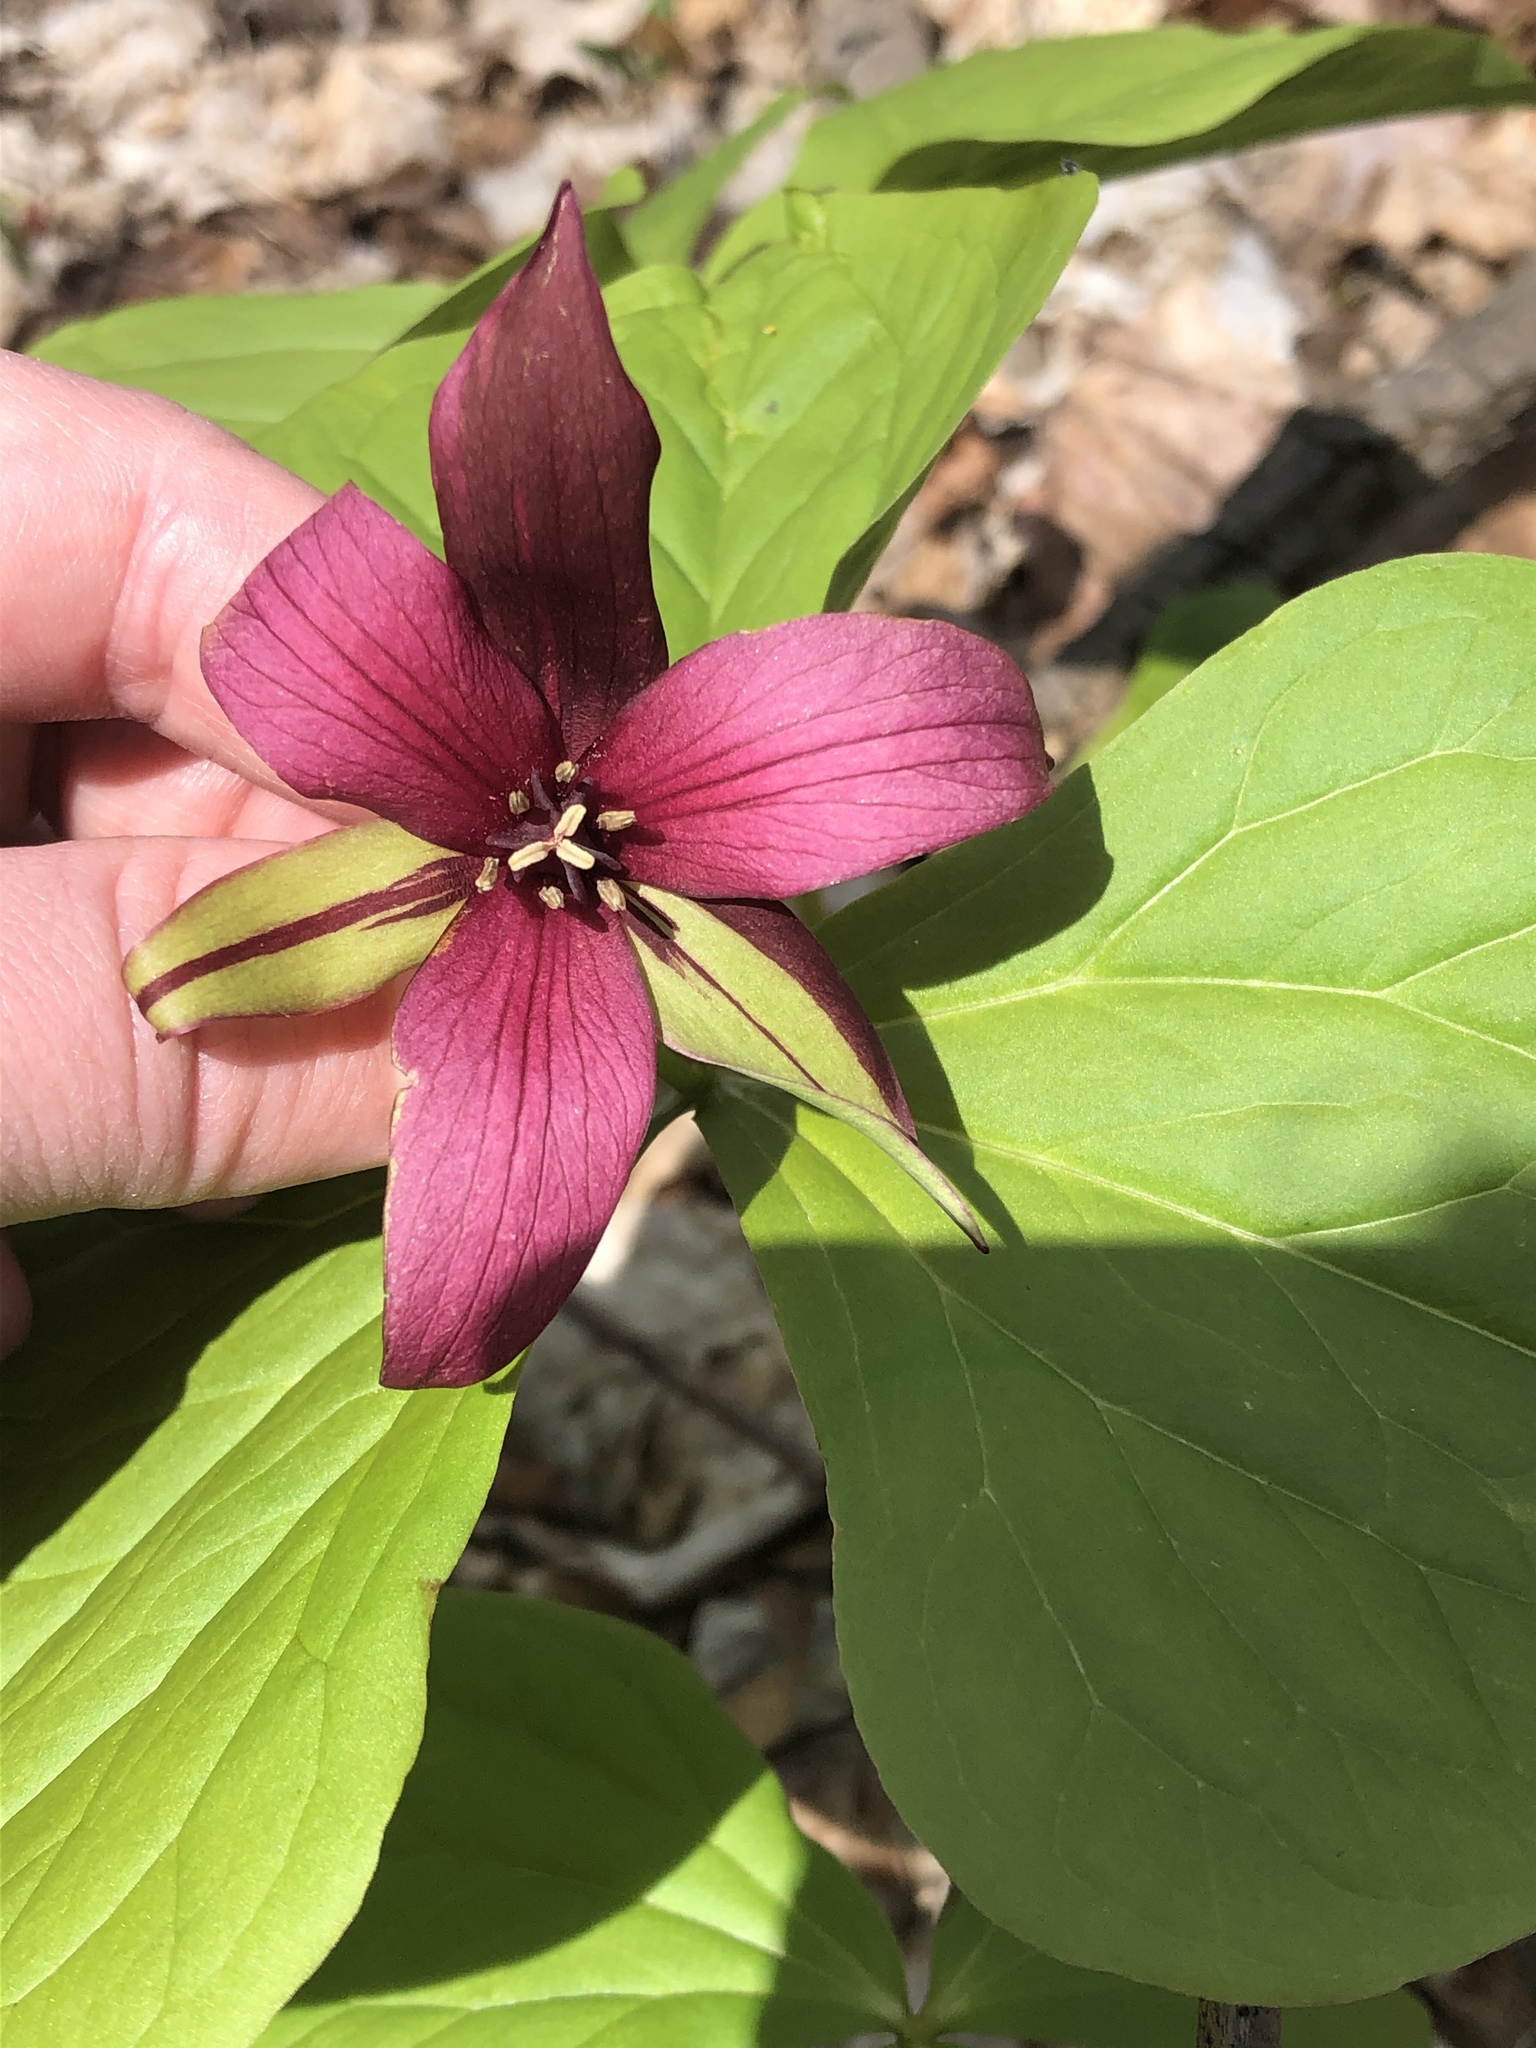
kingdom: Plantae
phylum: Tracheophyta
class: Liliopsida
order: Liliales
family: Melanthiaceae
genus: Trillium
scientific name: Trillium erectum
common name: Purple trillium
